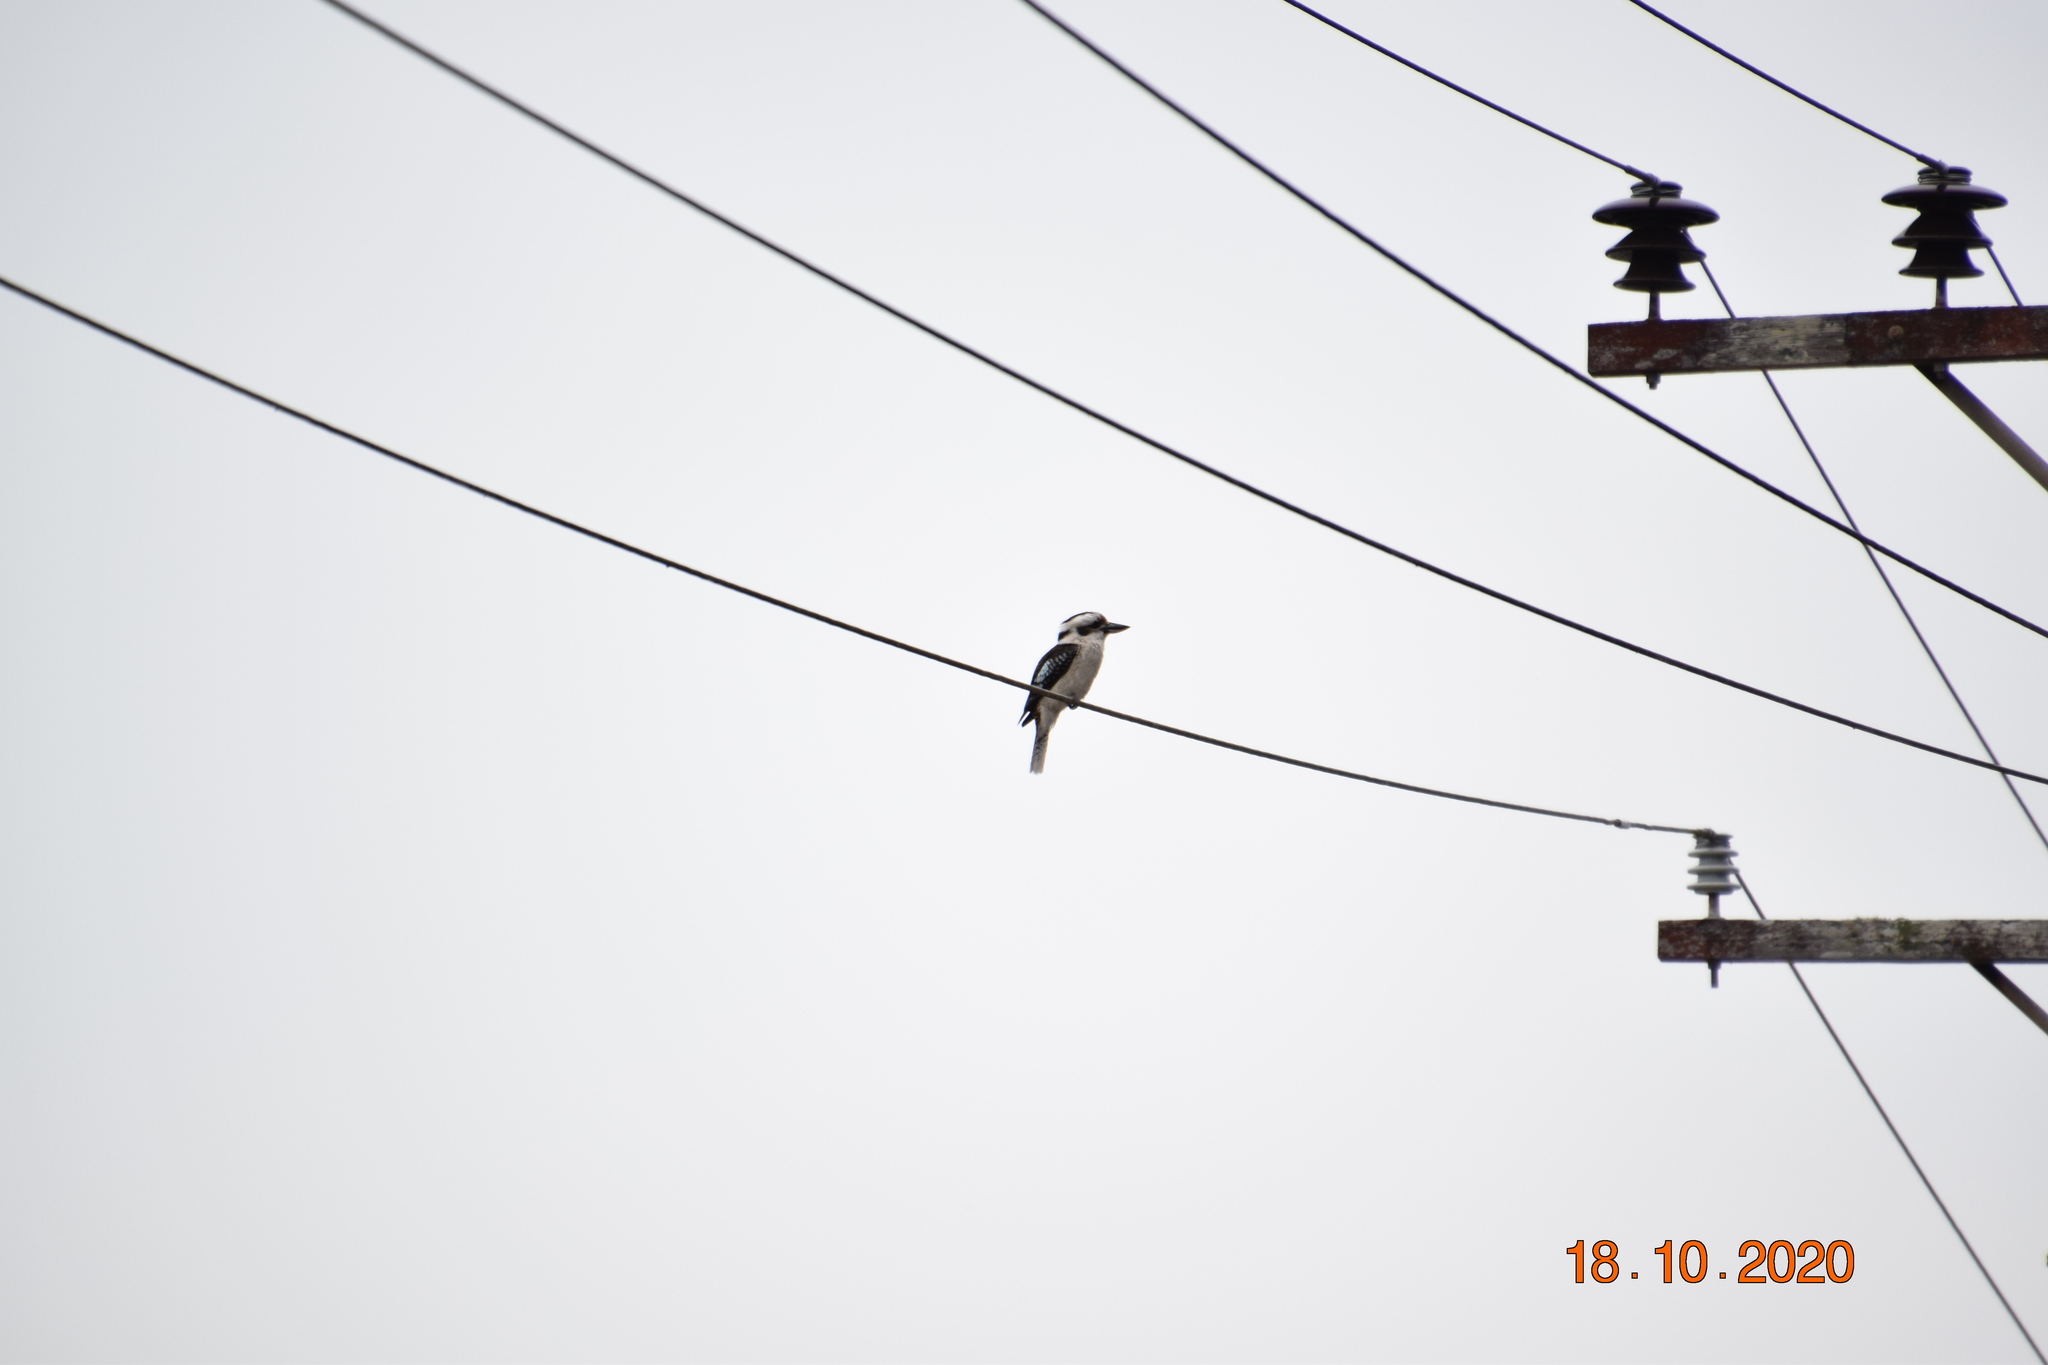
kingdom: Animalia
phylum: Chordata
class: Aves
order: Coraciiformes
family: Alcedinidae
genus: Dacelo
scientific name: Dacelo novaeguineae
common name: Laughing kookaburra
